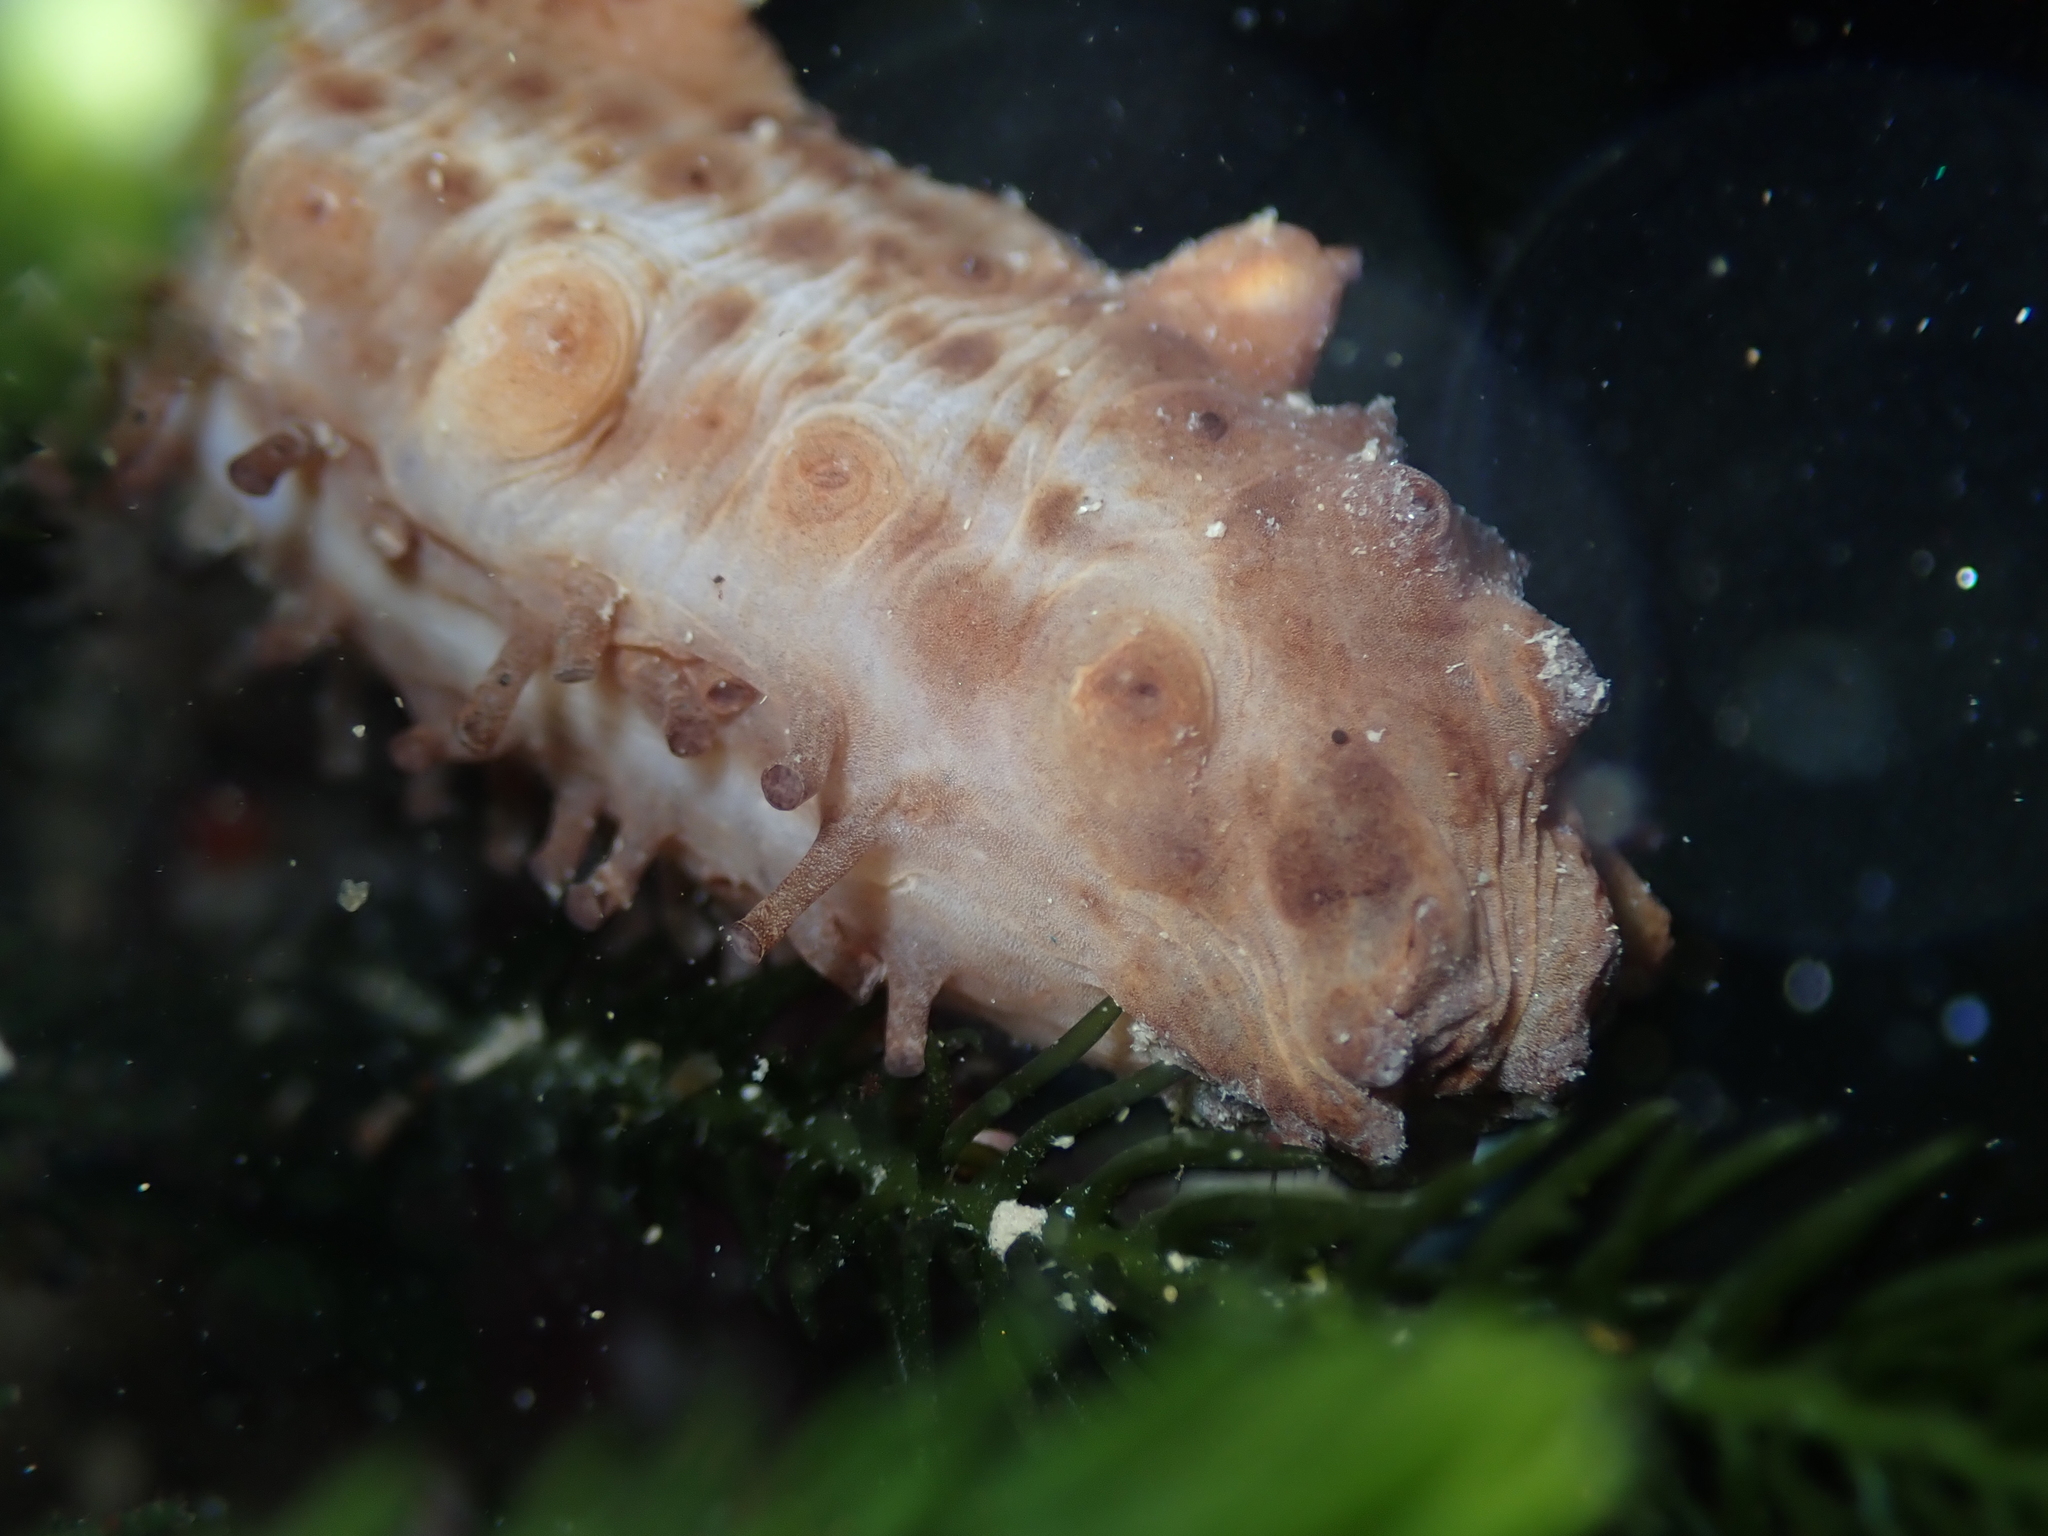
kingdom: Animalia
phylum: Echinodermata
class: Holothuroidea
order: Synallactida
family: Stichopodidae
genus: Australostichopus
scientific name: Australostichopus mollis
